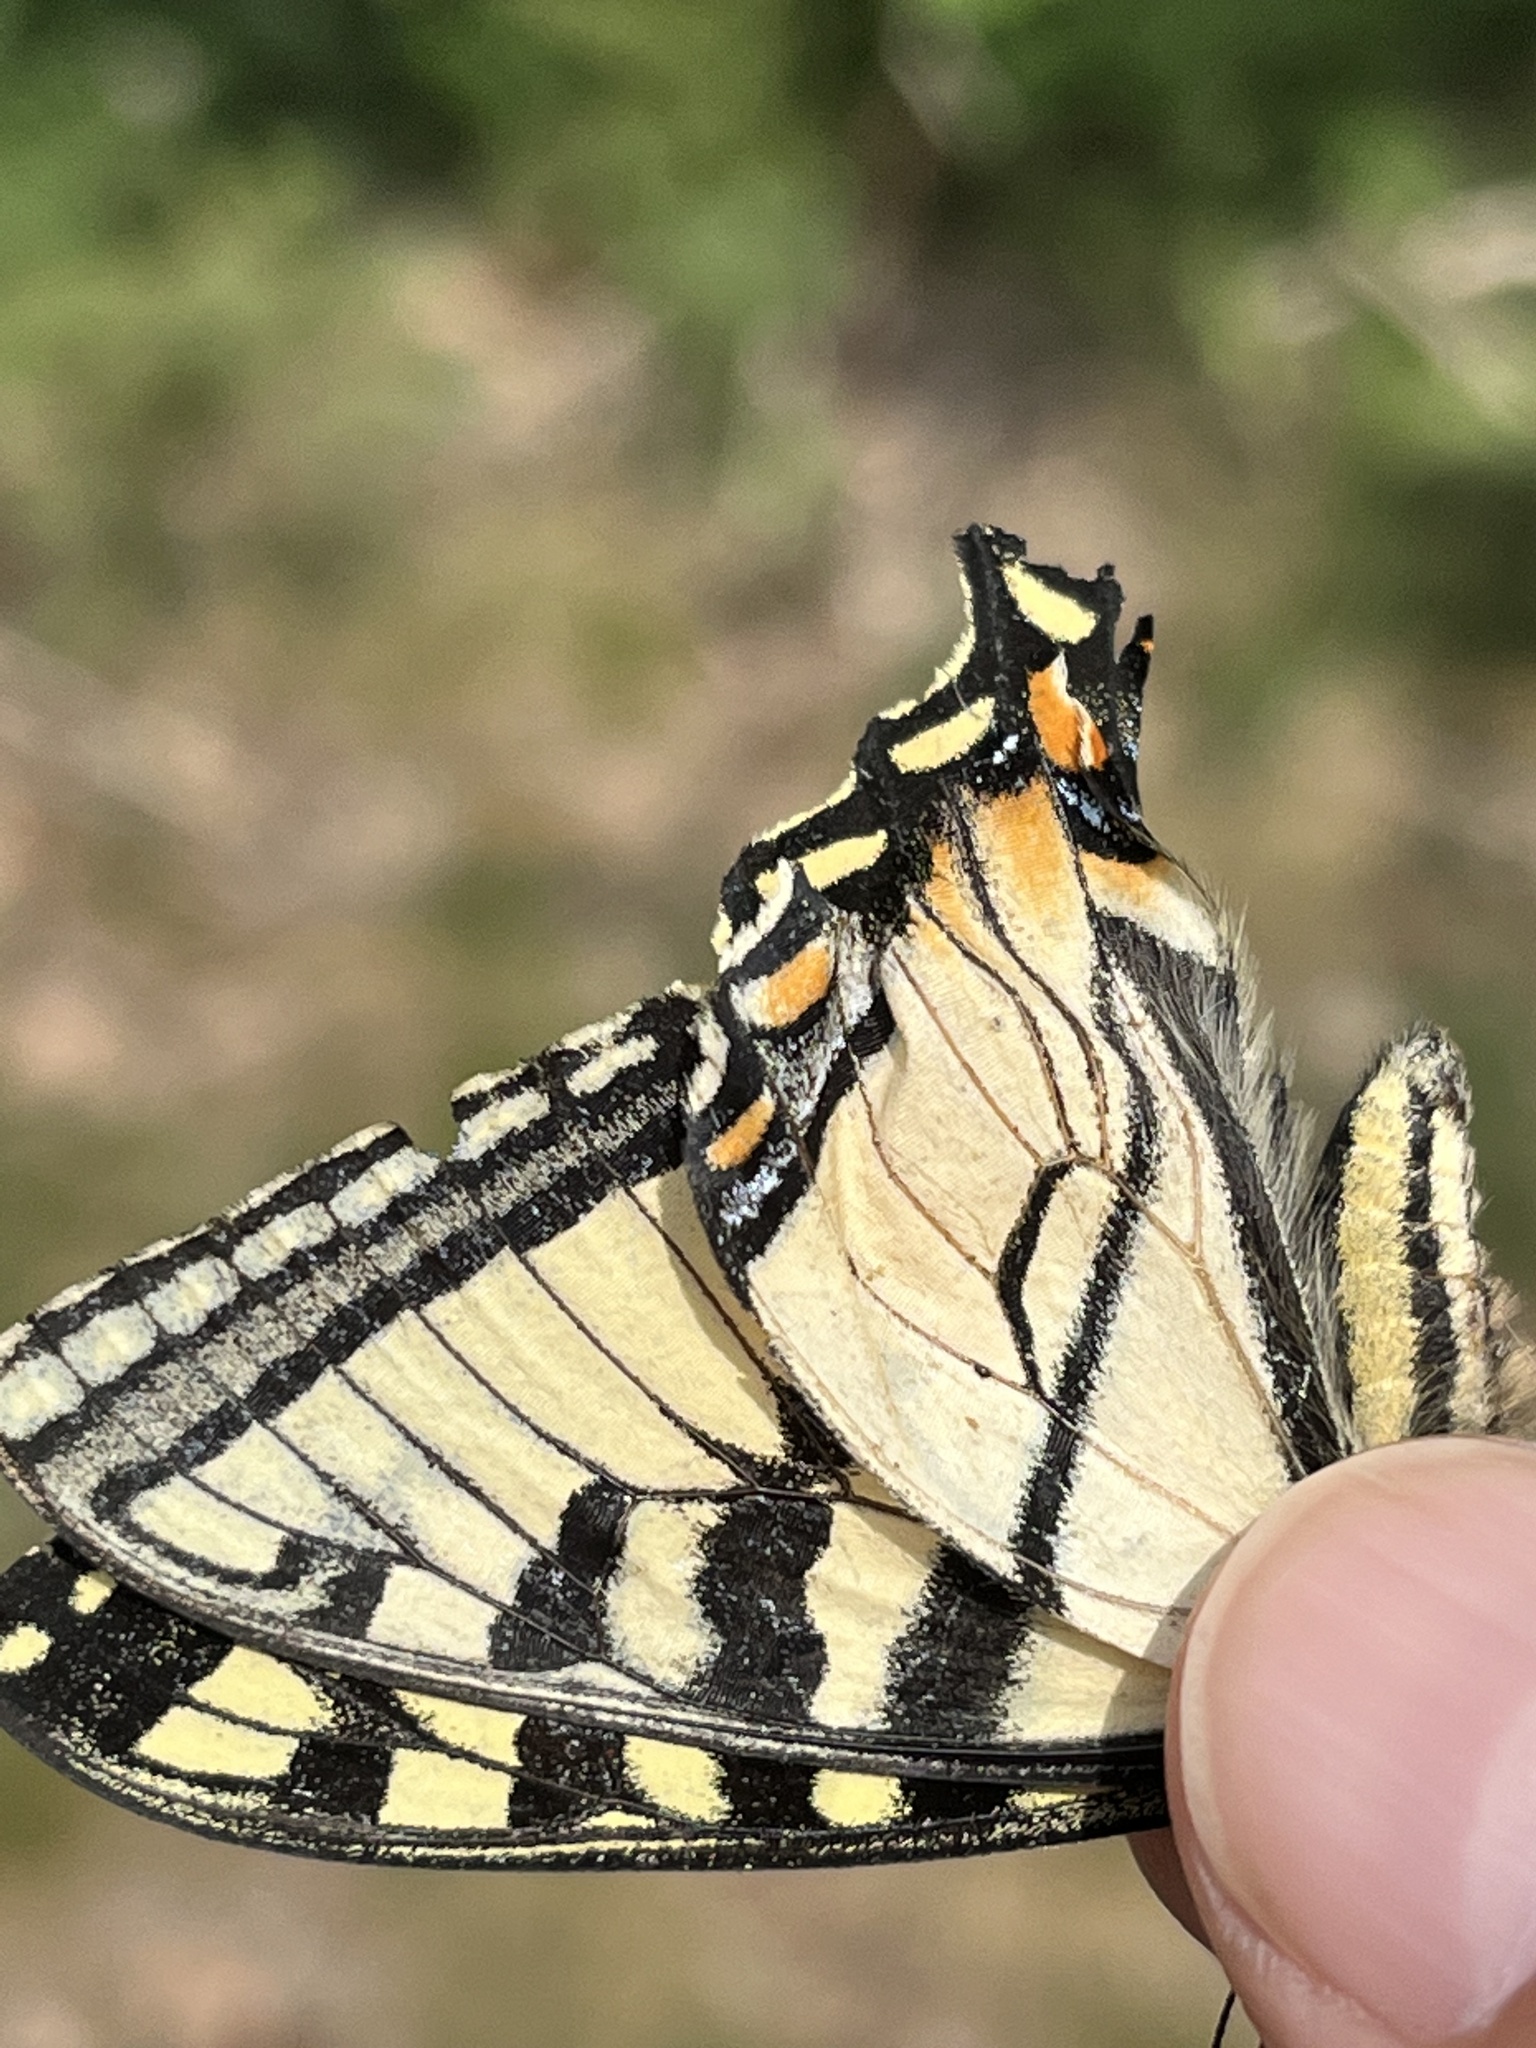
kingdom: Animalia
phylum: Arthropoda
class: Insecta
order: Lepidoptera
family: Papilionidae
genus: Papilio
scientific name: Papilio canadensis
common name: Canadian tiger swallowtail
